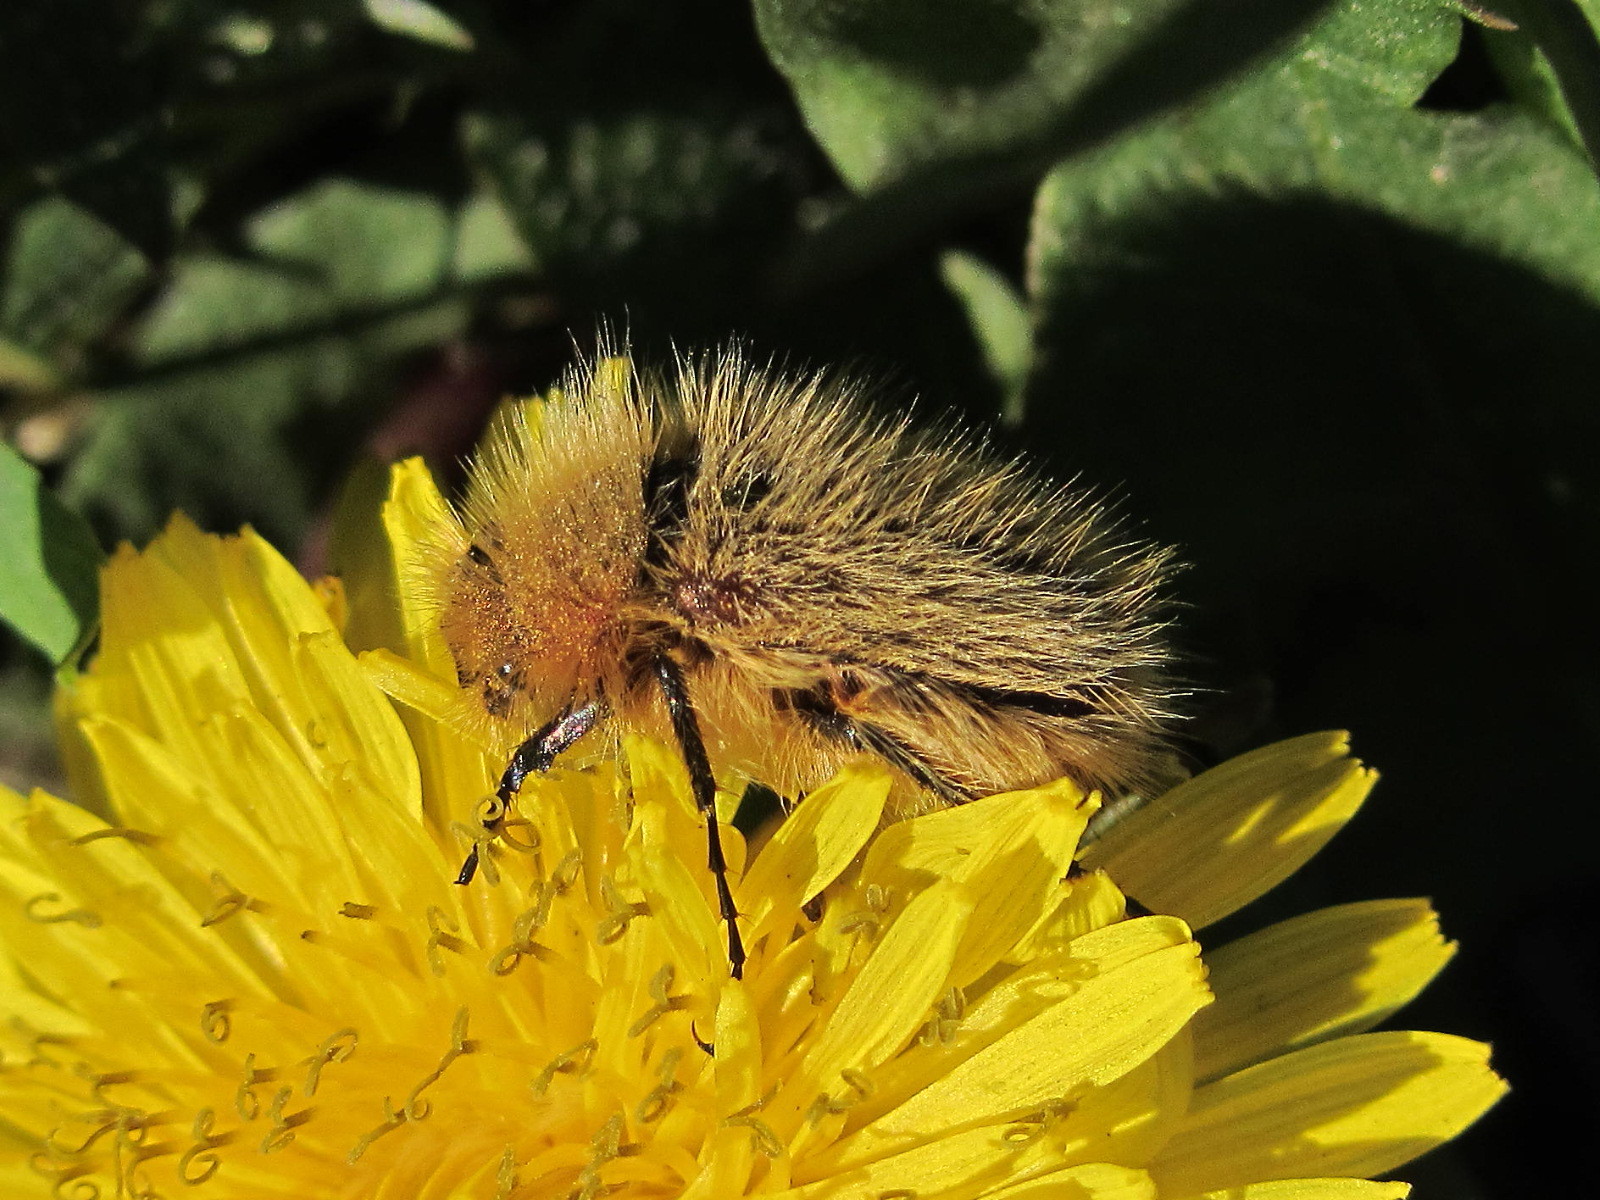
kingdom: Animalia
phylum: Arthropoda
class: Insecta
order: Coleoptera
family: Glaphyridae
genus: Pygopleurus
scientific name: Pygopleurus vulpes
